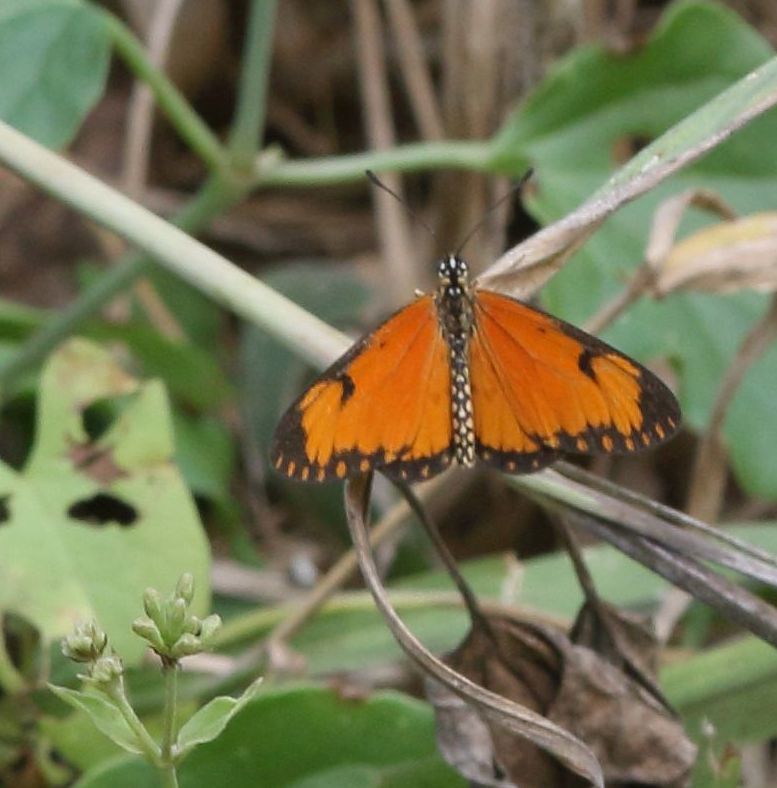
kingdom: Animalia
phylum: Arthropoda
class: Insecta
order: Lepidoptera
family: Nymphalidae
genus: Acraea
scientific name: Acraea Telchinia serena
